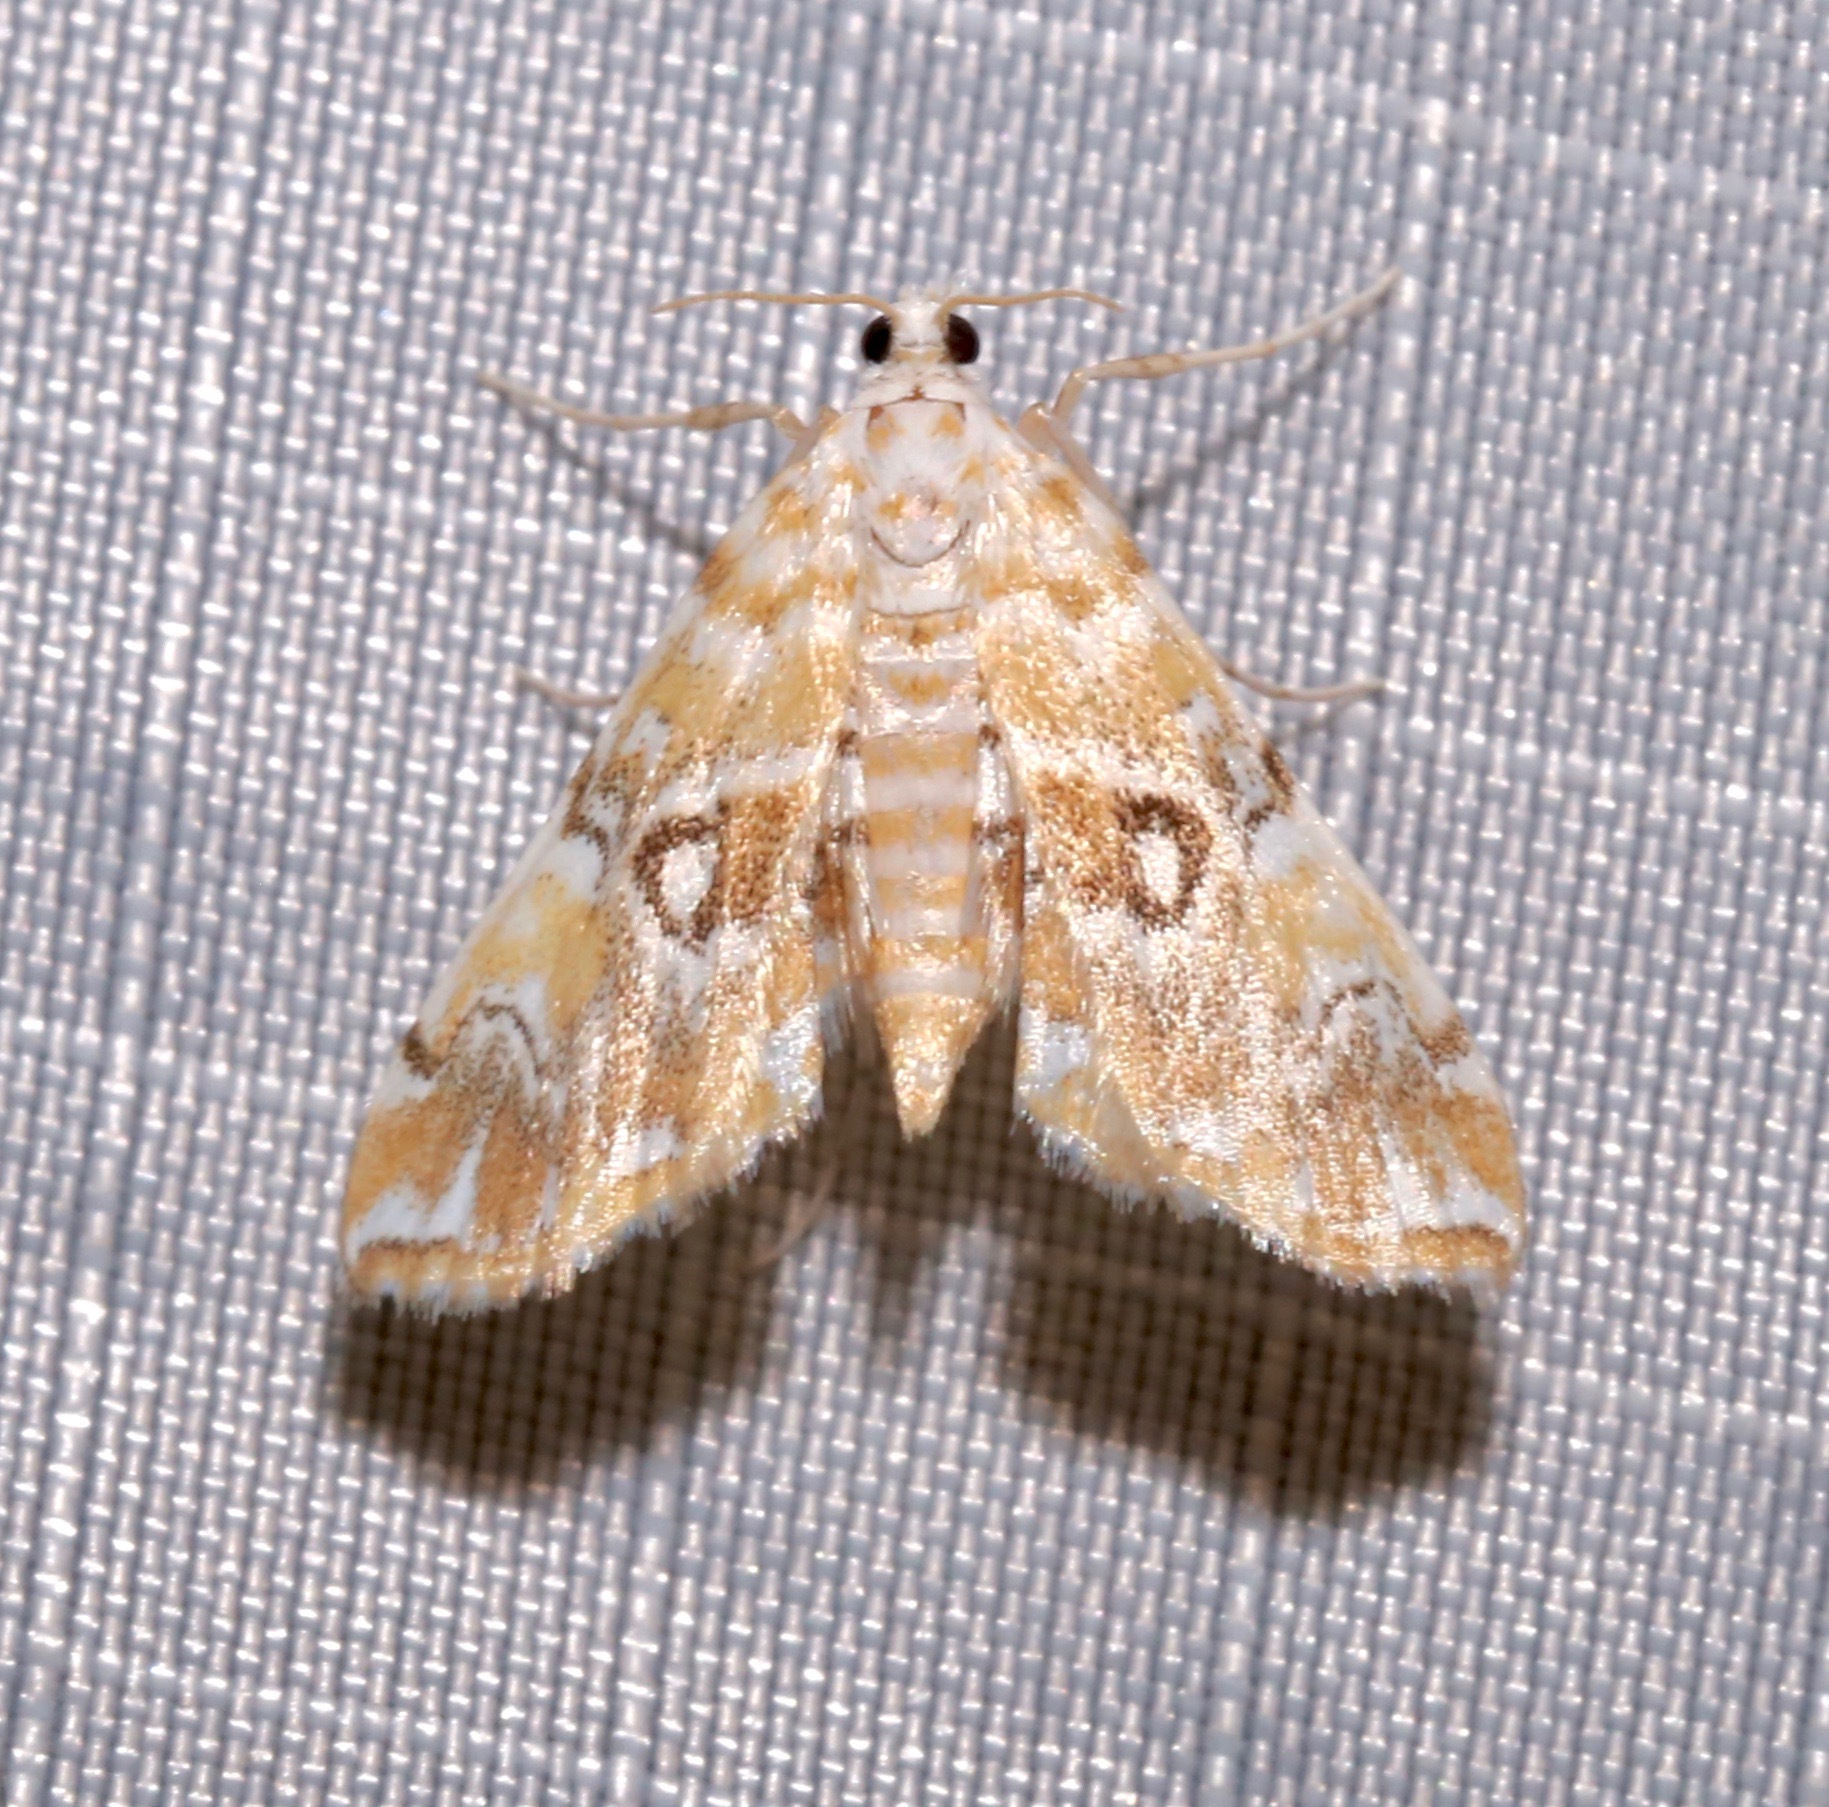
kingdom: Animalia
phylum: Arthropoda
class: Insecta
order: Lepidoptera
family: Crambidae
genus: Elophila
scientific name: Elophila icciusalis
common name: Pondside pyralid moth
